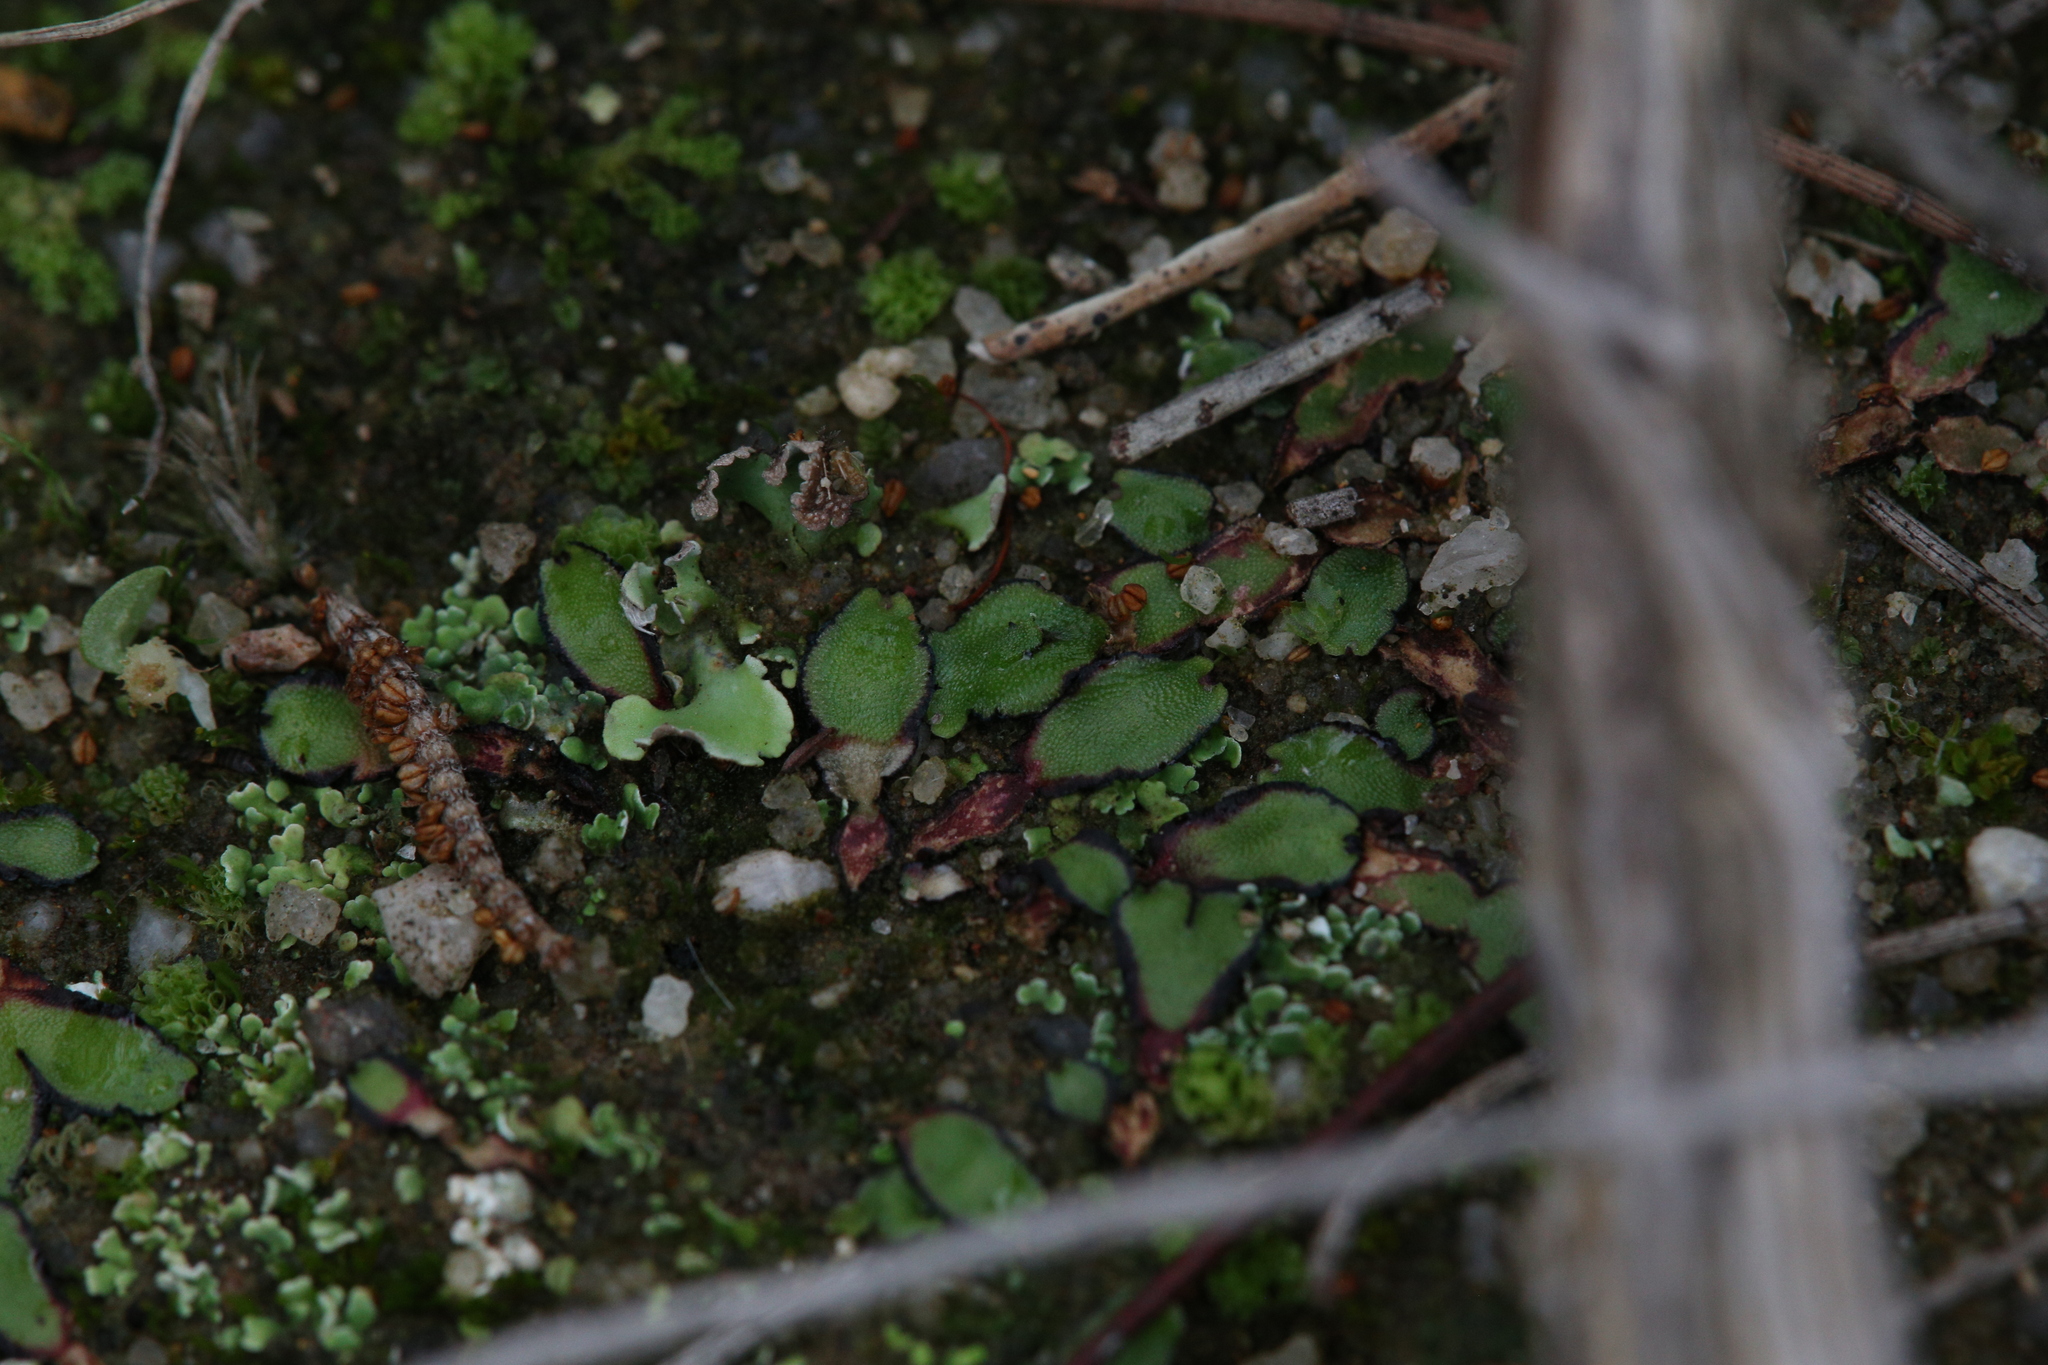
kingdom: Plantae
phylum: Marchantiophyta
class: Marchantiopsida
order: Marchantiales
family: Aytoniaceae
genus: Asterella
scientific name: Asterella drummondii
